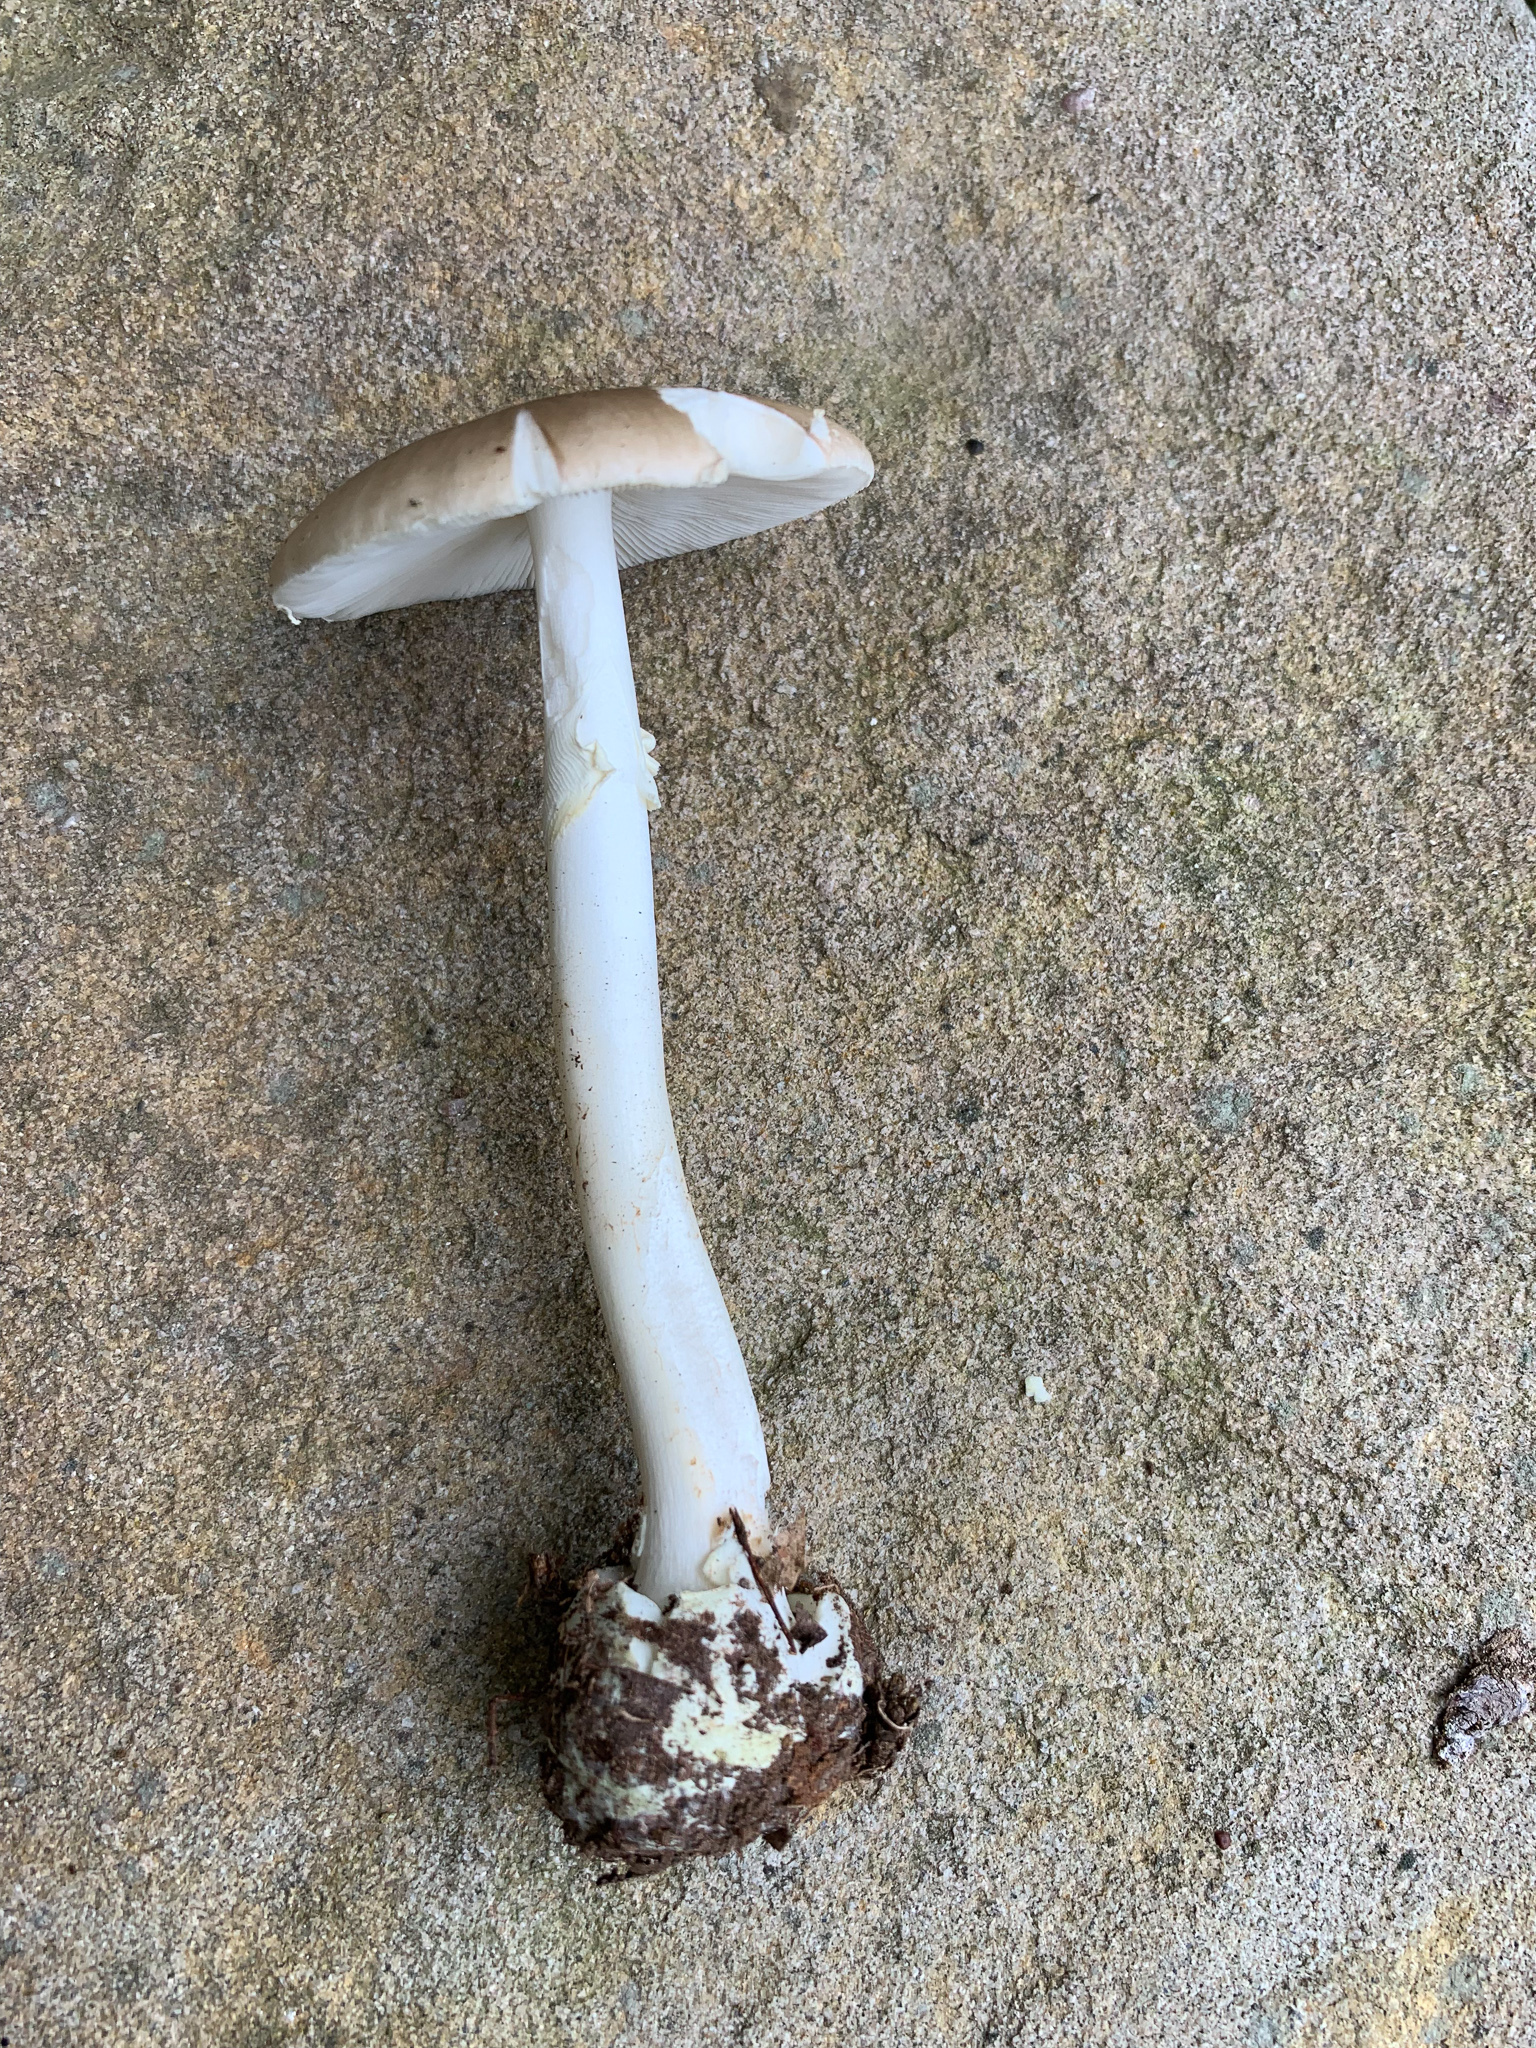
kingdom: Fungi
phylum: Basidiomycota
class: Agaricomycetes
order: Agaricales
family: Amanitaceae
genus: Amanita
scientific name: Amanita solaniolens
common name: Old potato amanita
